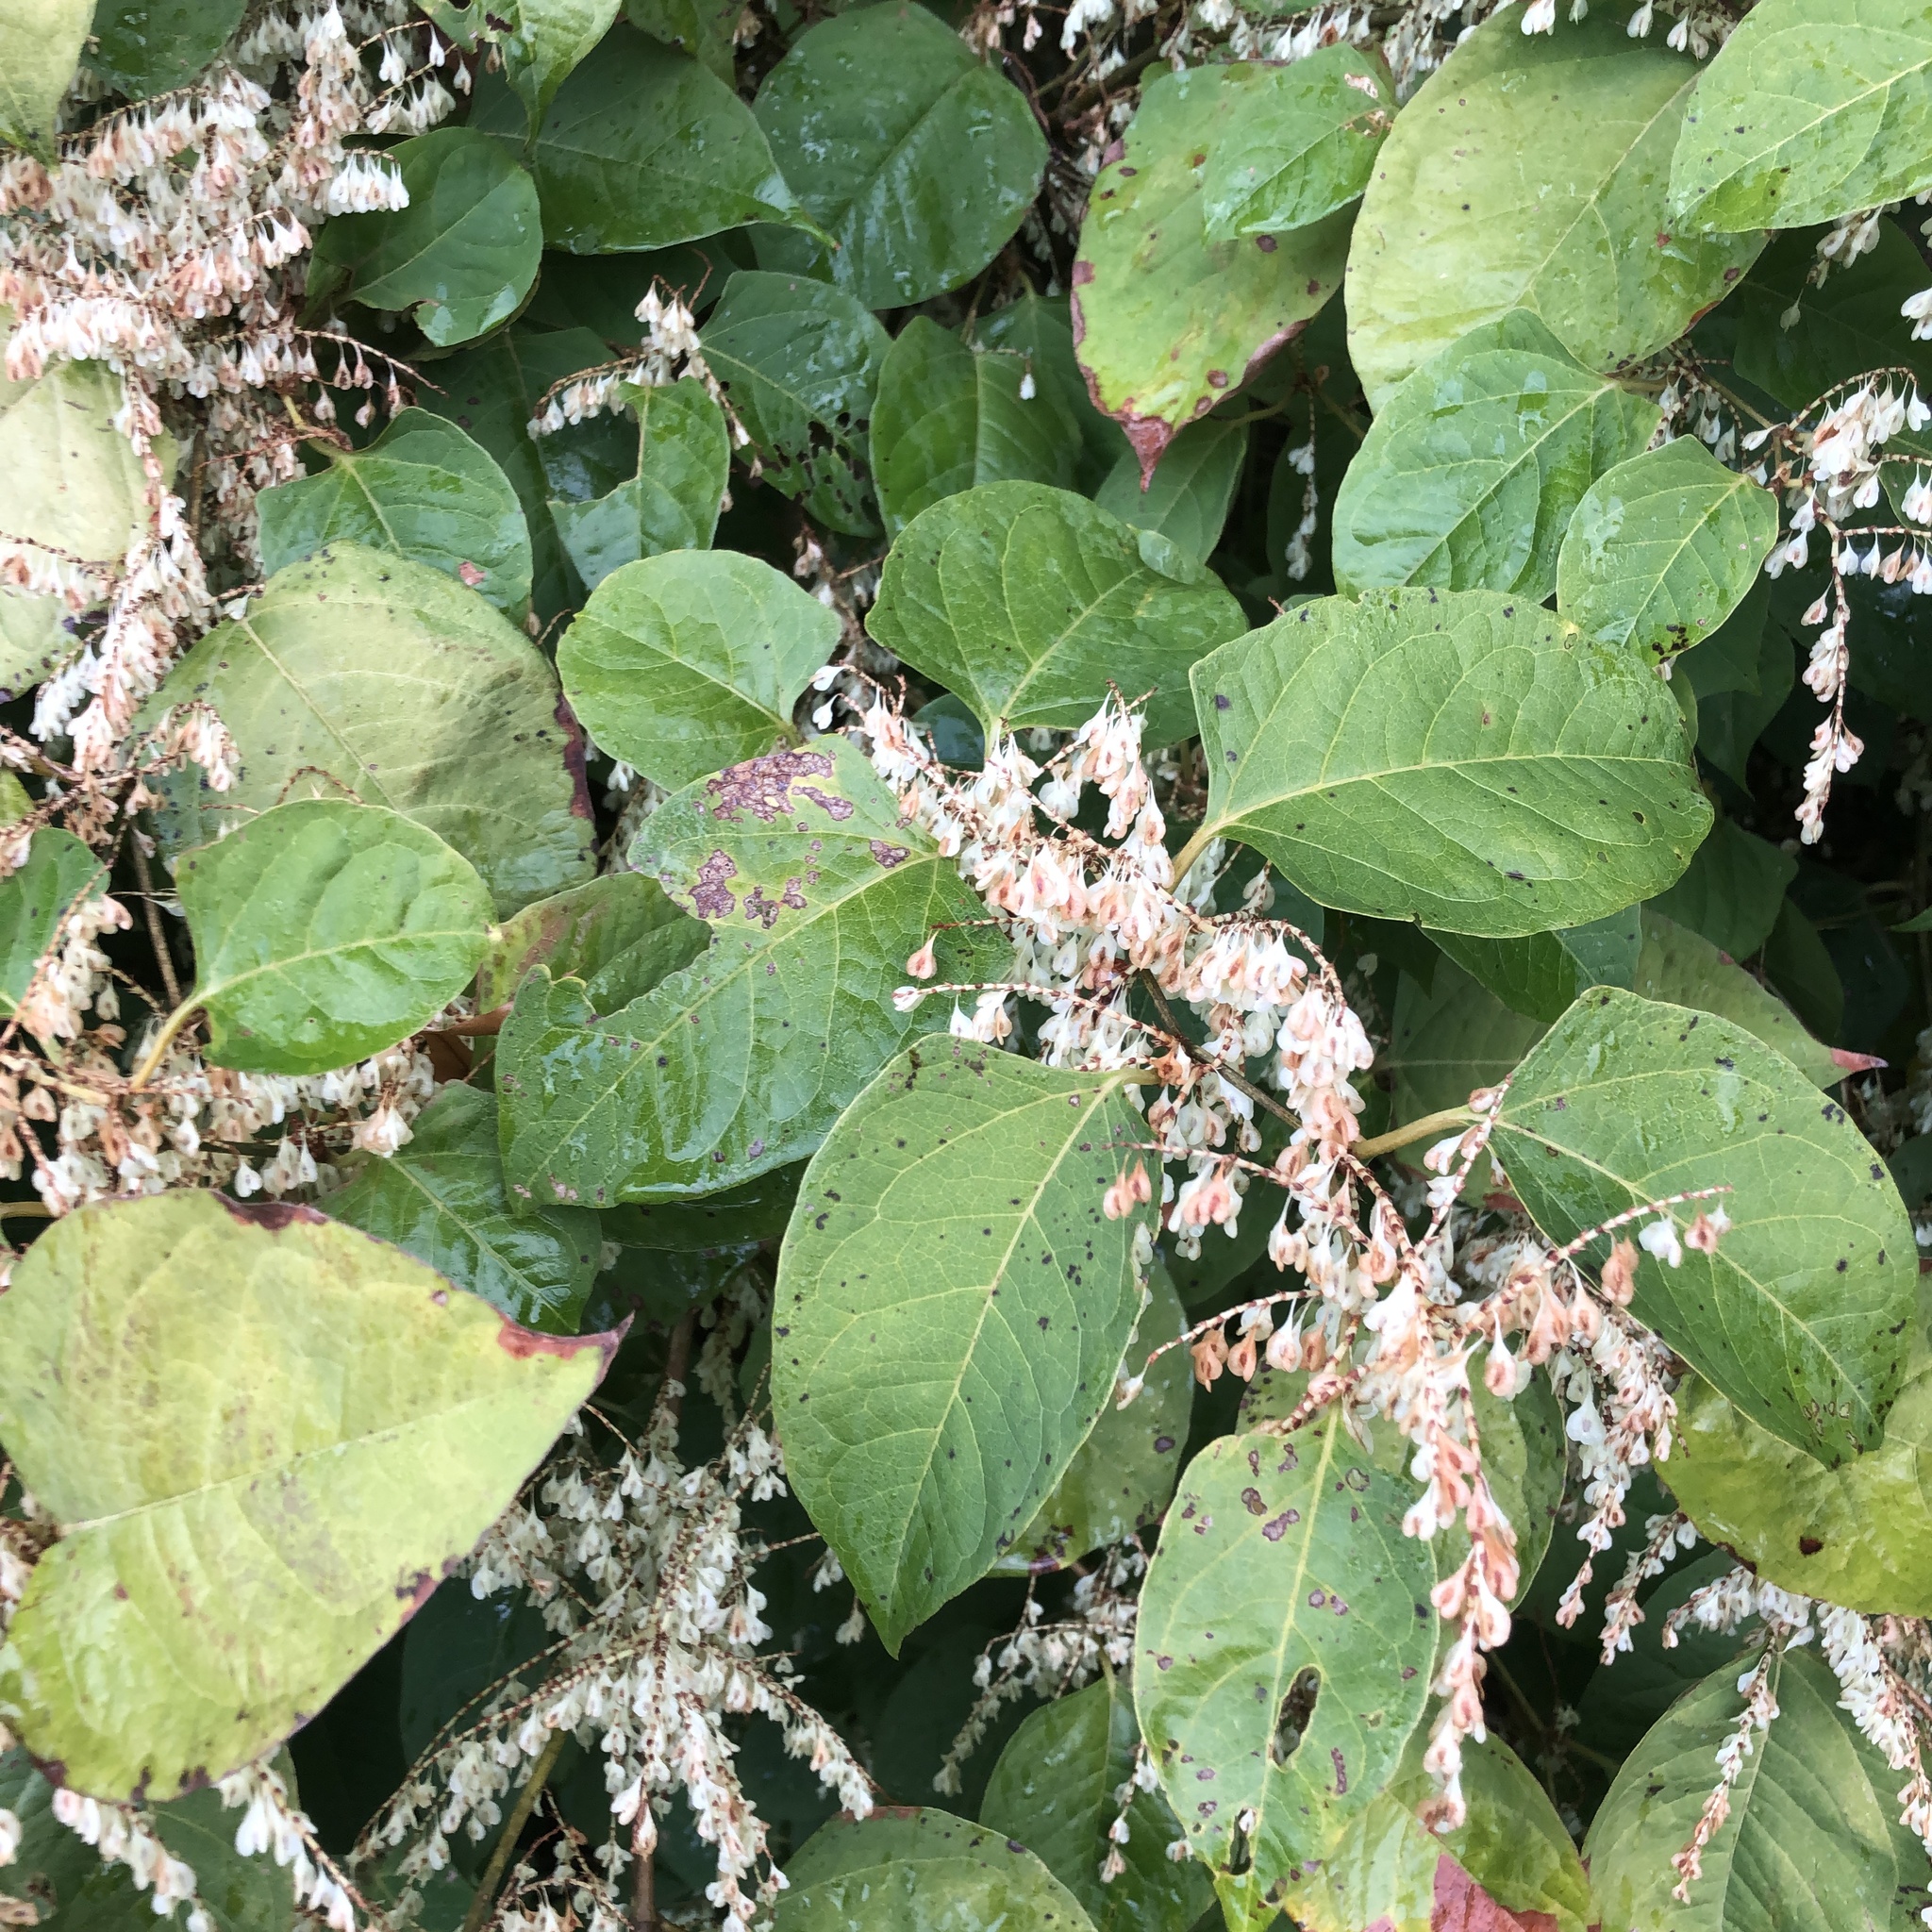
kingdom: Plantae
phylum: Tracheophyta
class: Magnoliopsida
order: Caryophyllales
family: Polygonaceae
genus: Reynoutria
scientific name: Reynoutria japonica
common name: Japanese knotweed
